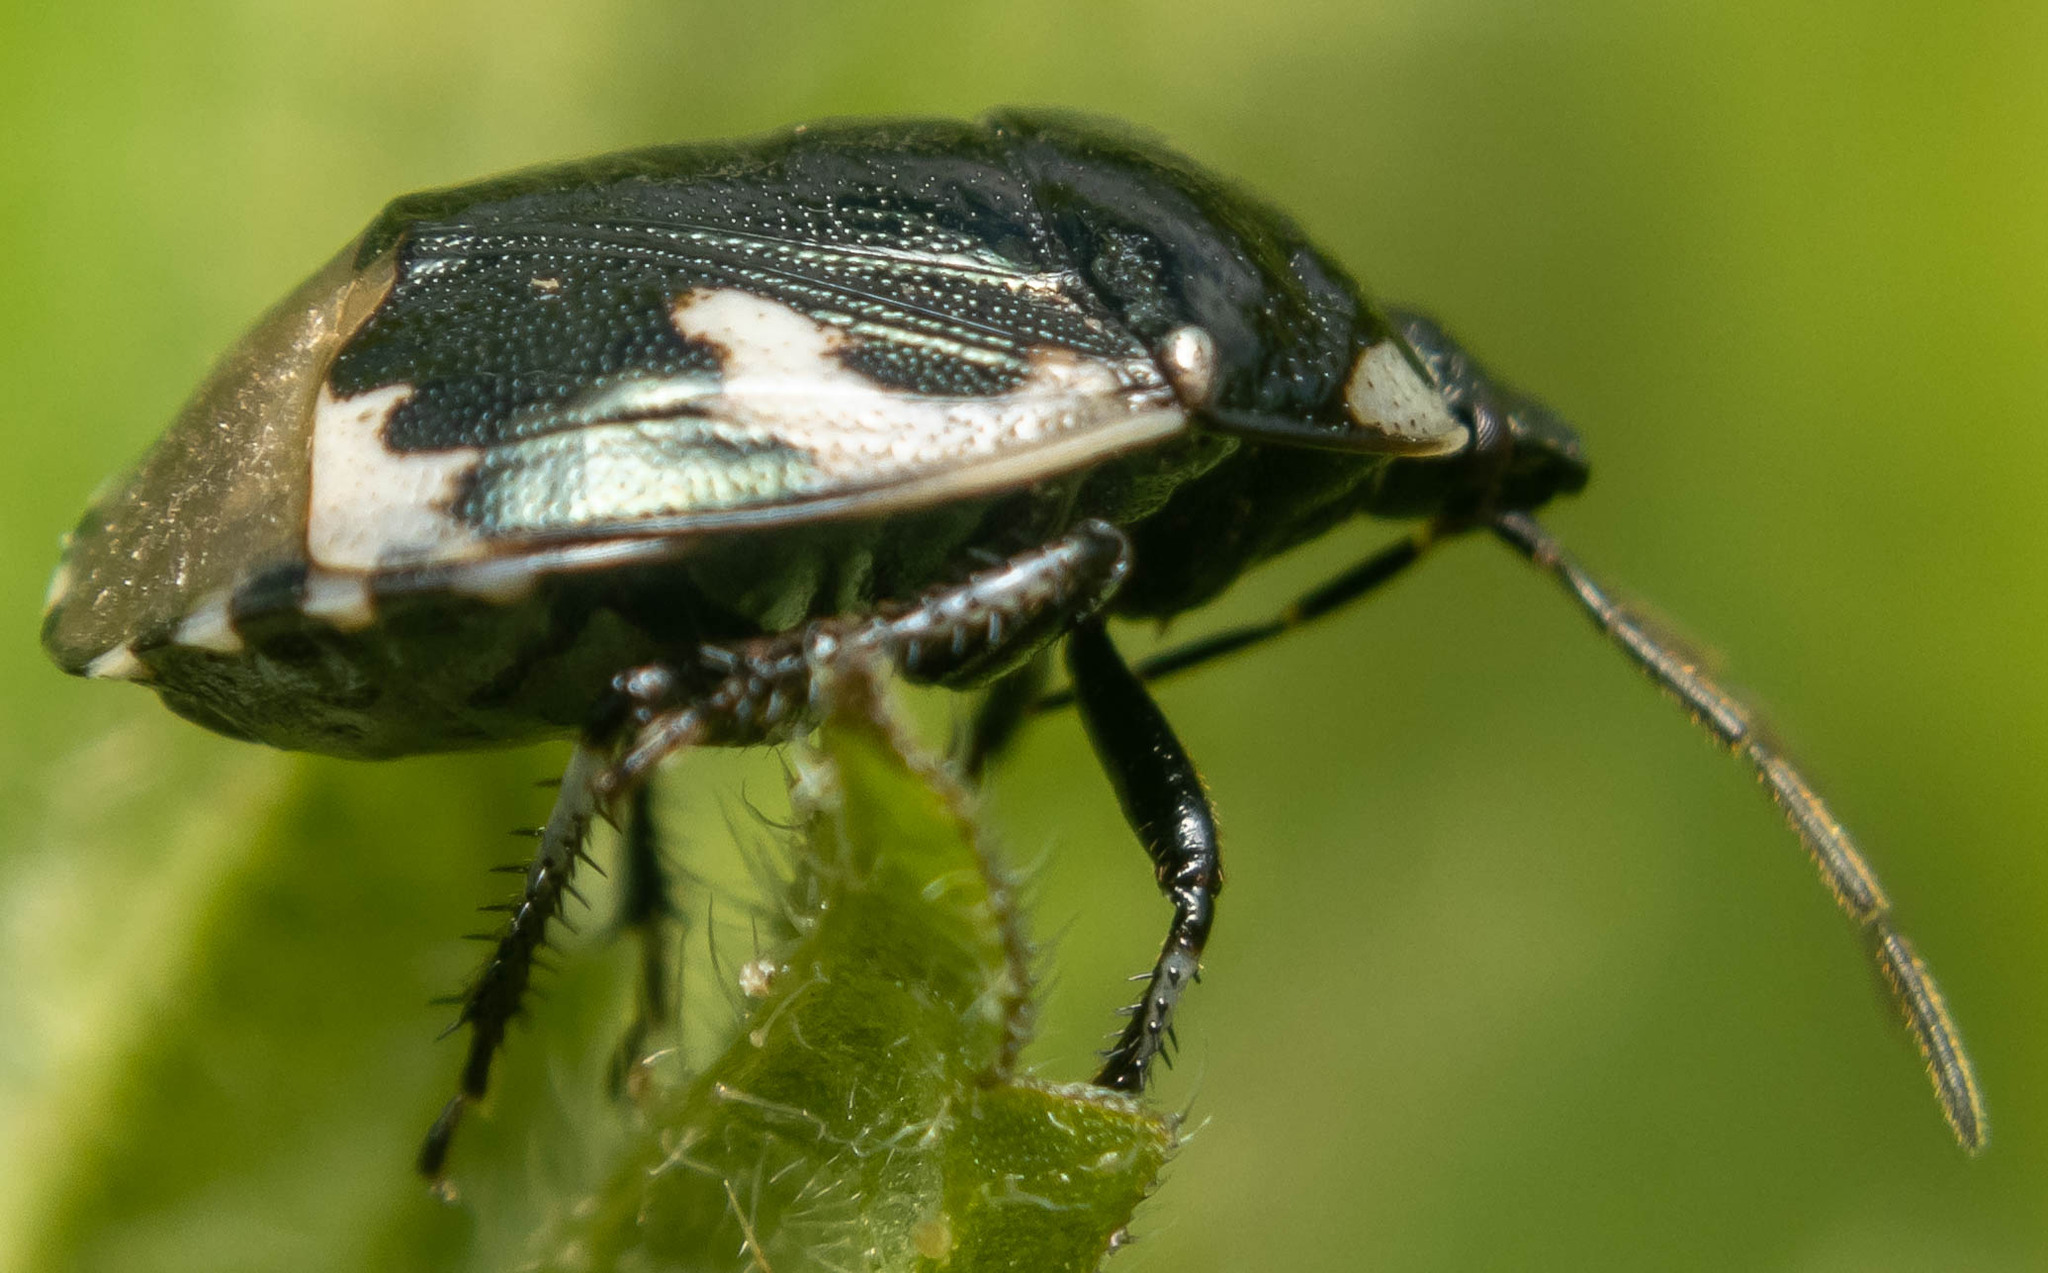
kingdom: Animalia
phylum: Arthropoda
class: Insecta
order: Hemiptera
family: Cydnidae
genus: Tritomegas
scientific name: Tritomegas bicolor
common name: Pied shieldbug
